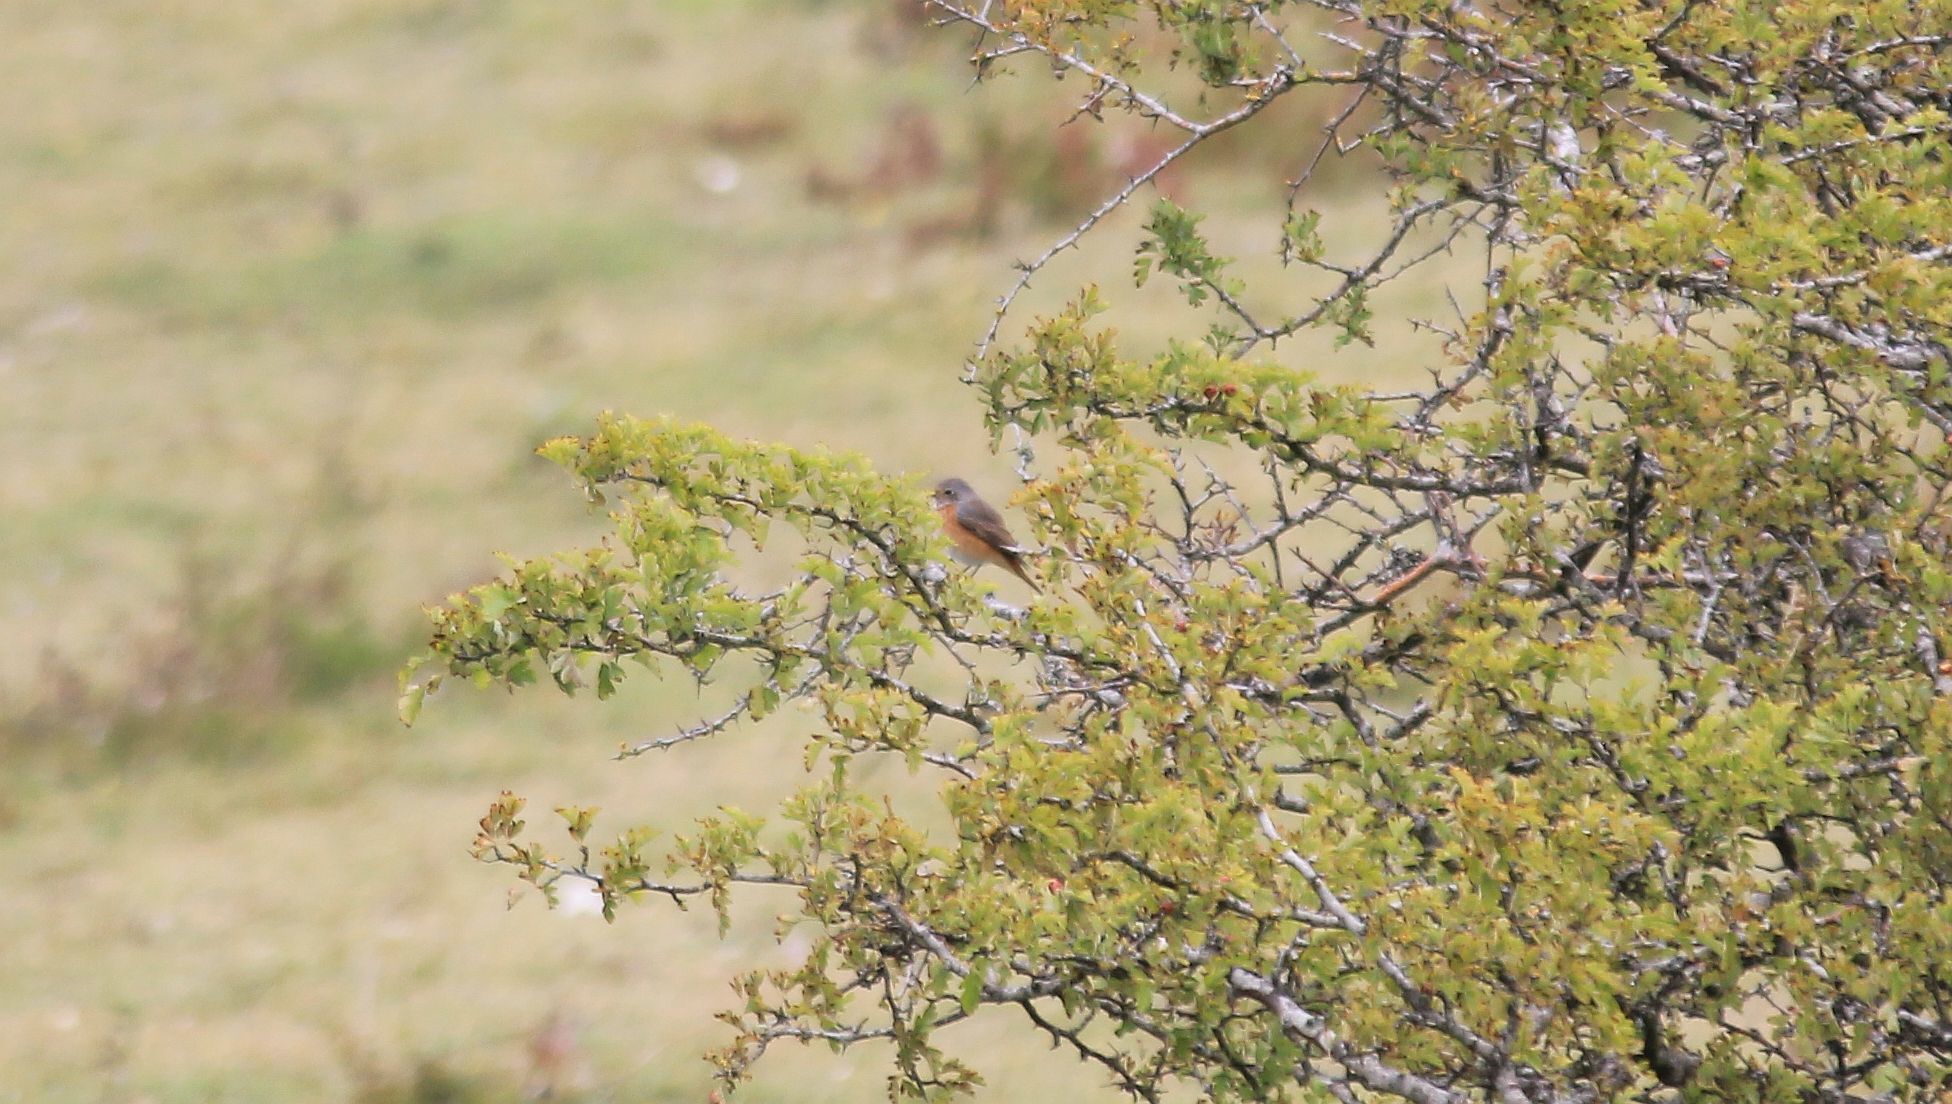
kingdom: Animalia
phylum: Chordata
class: Aves
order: Passeriformes
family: Muscicapidae
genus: Phoenicurus
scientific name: Phoenicurus phoenicurus
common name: Common redstart
